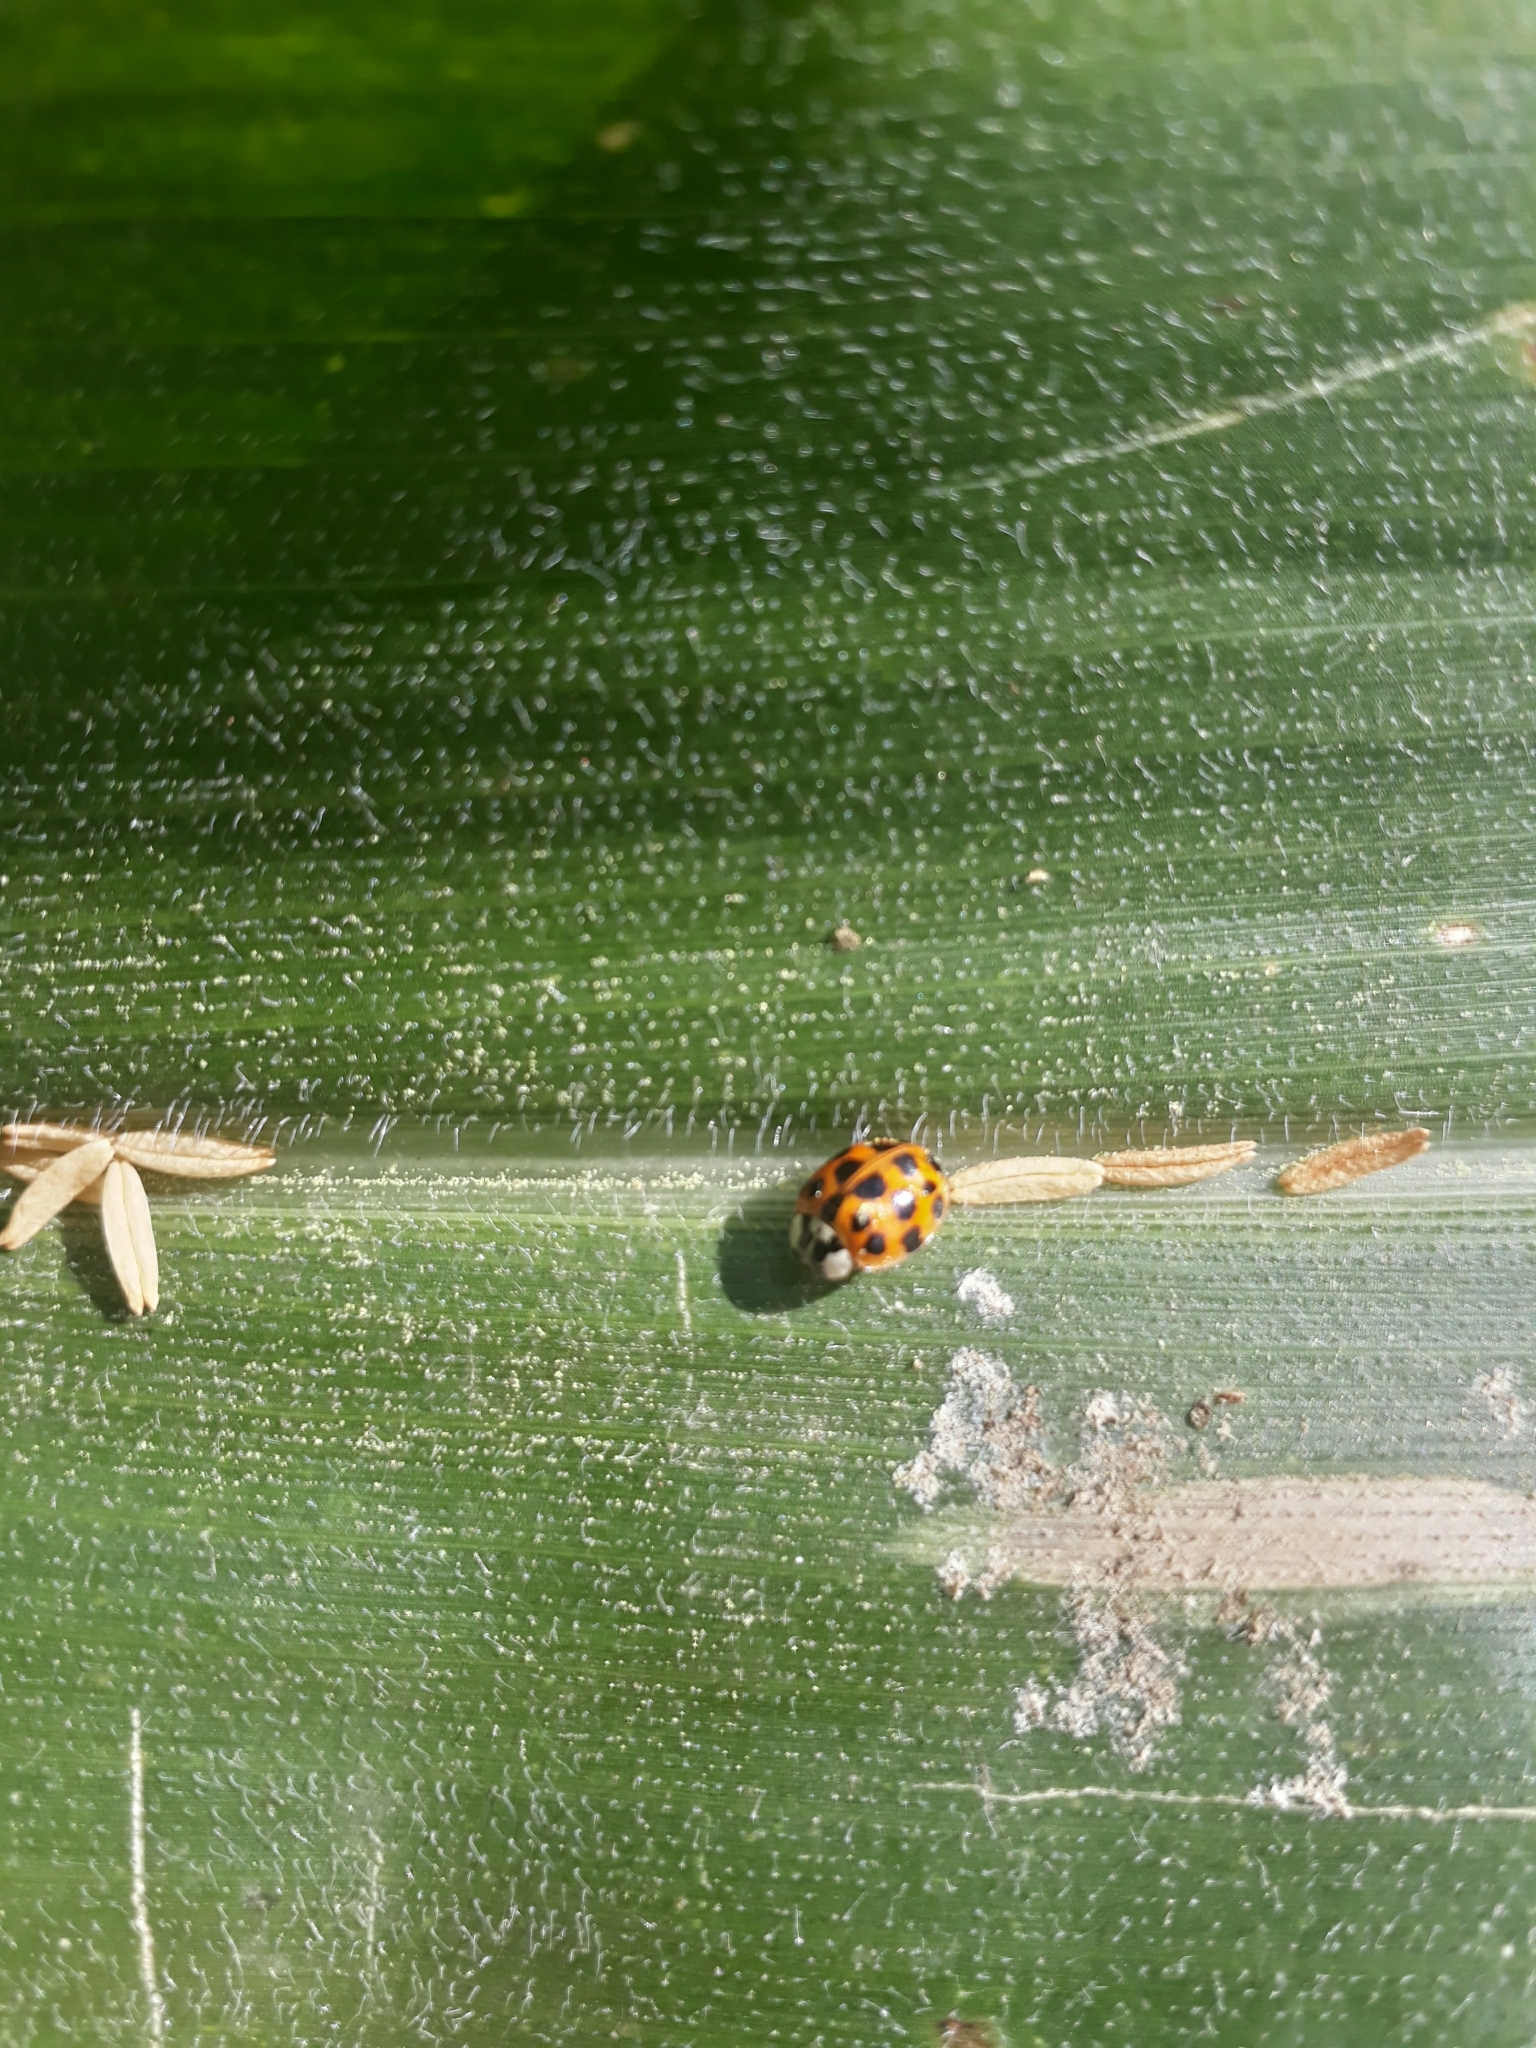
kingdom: Animalia
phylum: Arthropoda
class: Insecta
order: Coleoptera
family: Coccinellidae
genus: Harmonia
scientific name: Harmonia axyridis
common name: Harlequin ladybird
